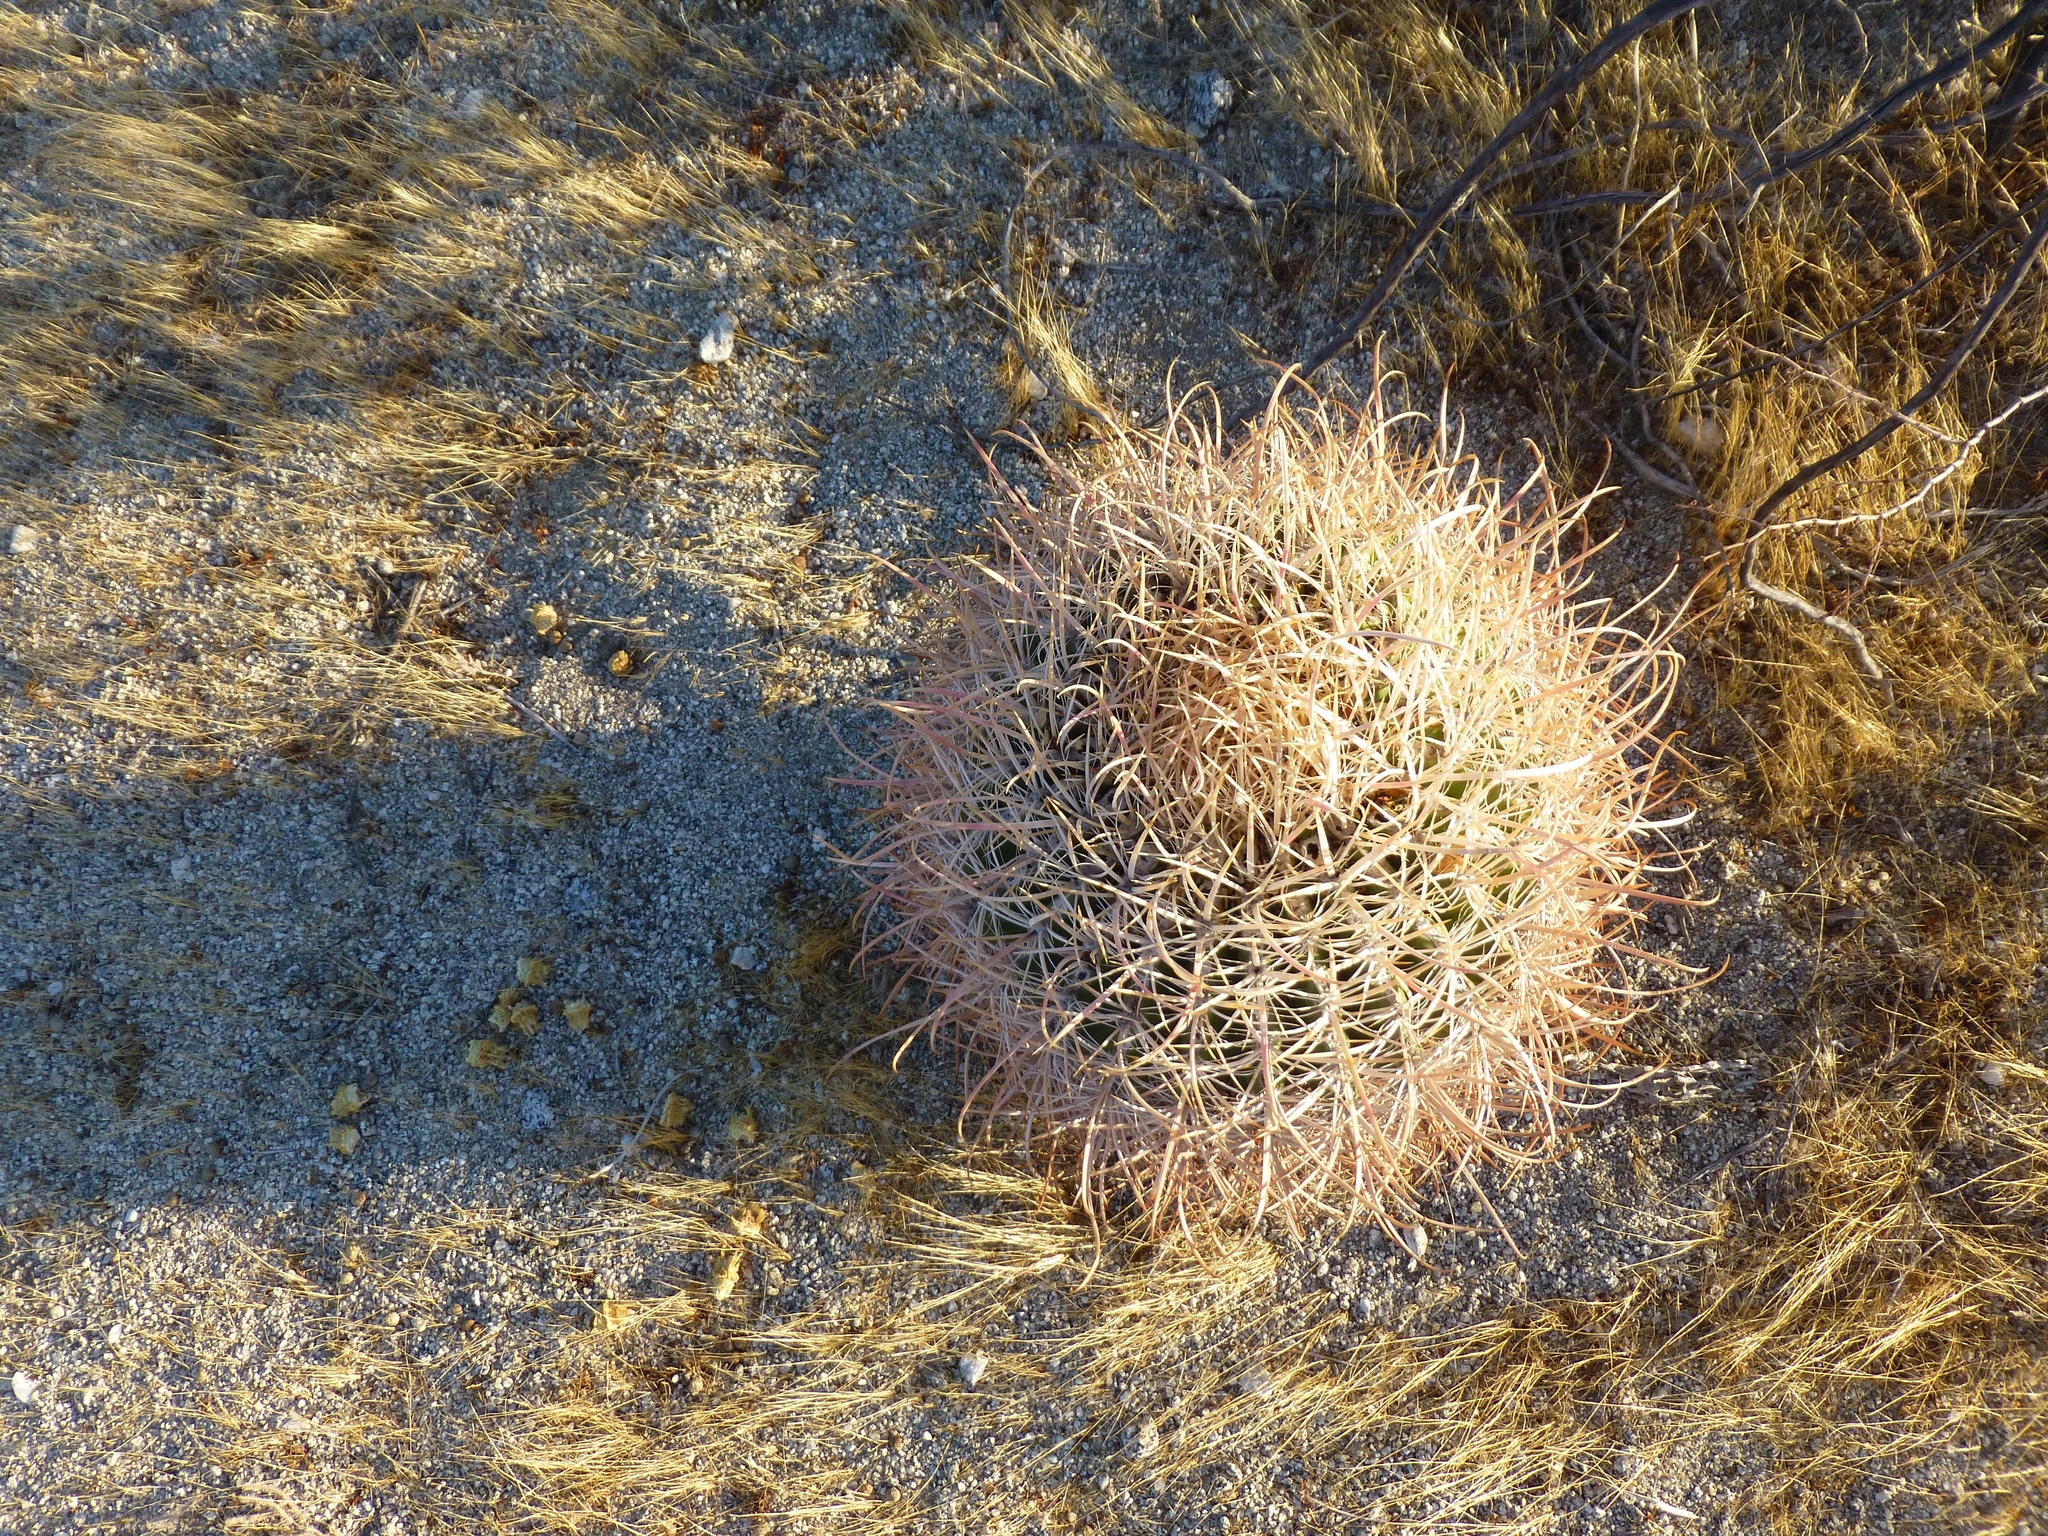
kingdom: Plantae
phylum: Tracheophyta
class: Magnoliopsida
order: Caryophyllales
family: Cactaceae
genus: Ferocactus
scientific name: Ferocactus cylindraceus
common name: California barrel cactus
